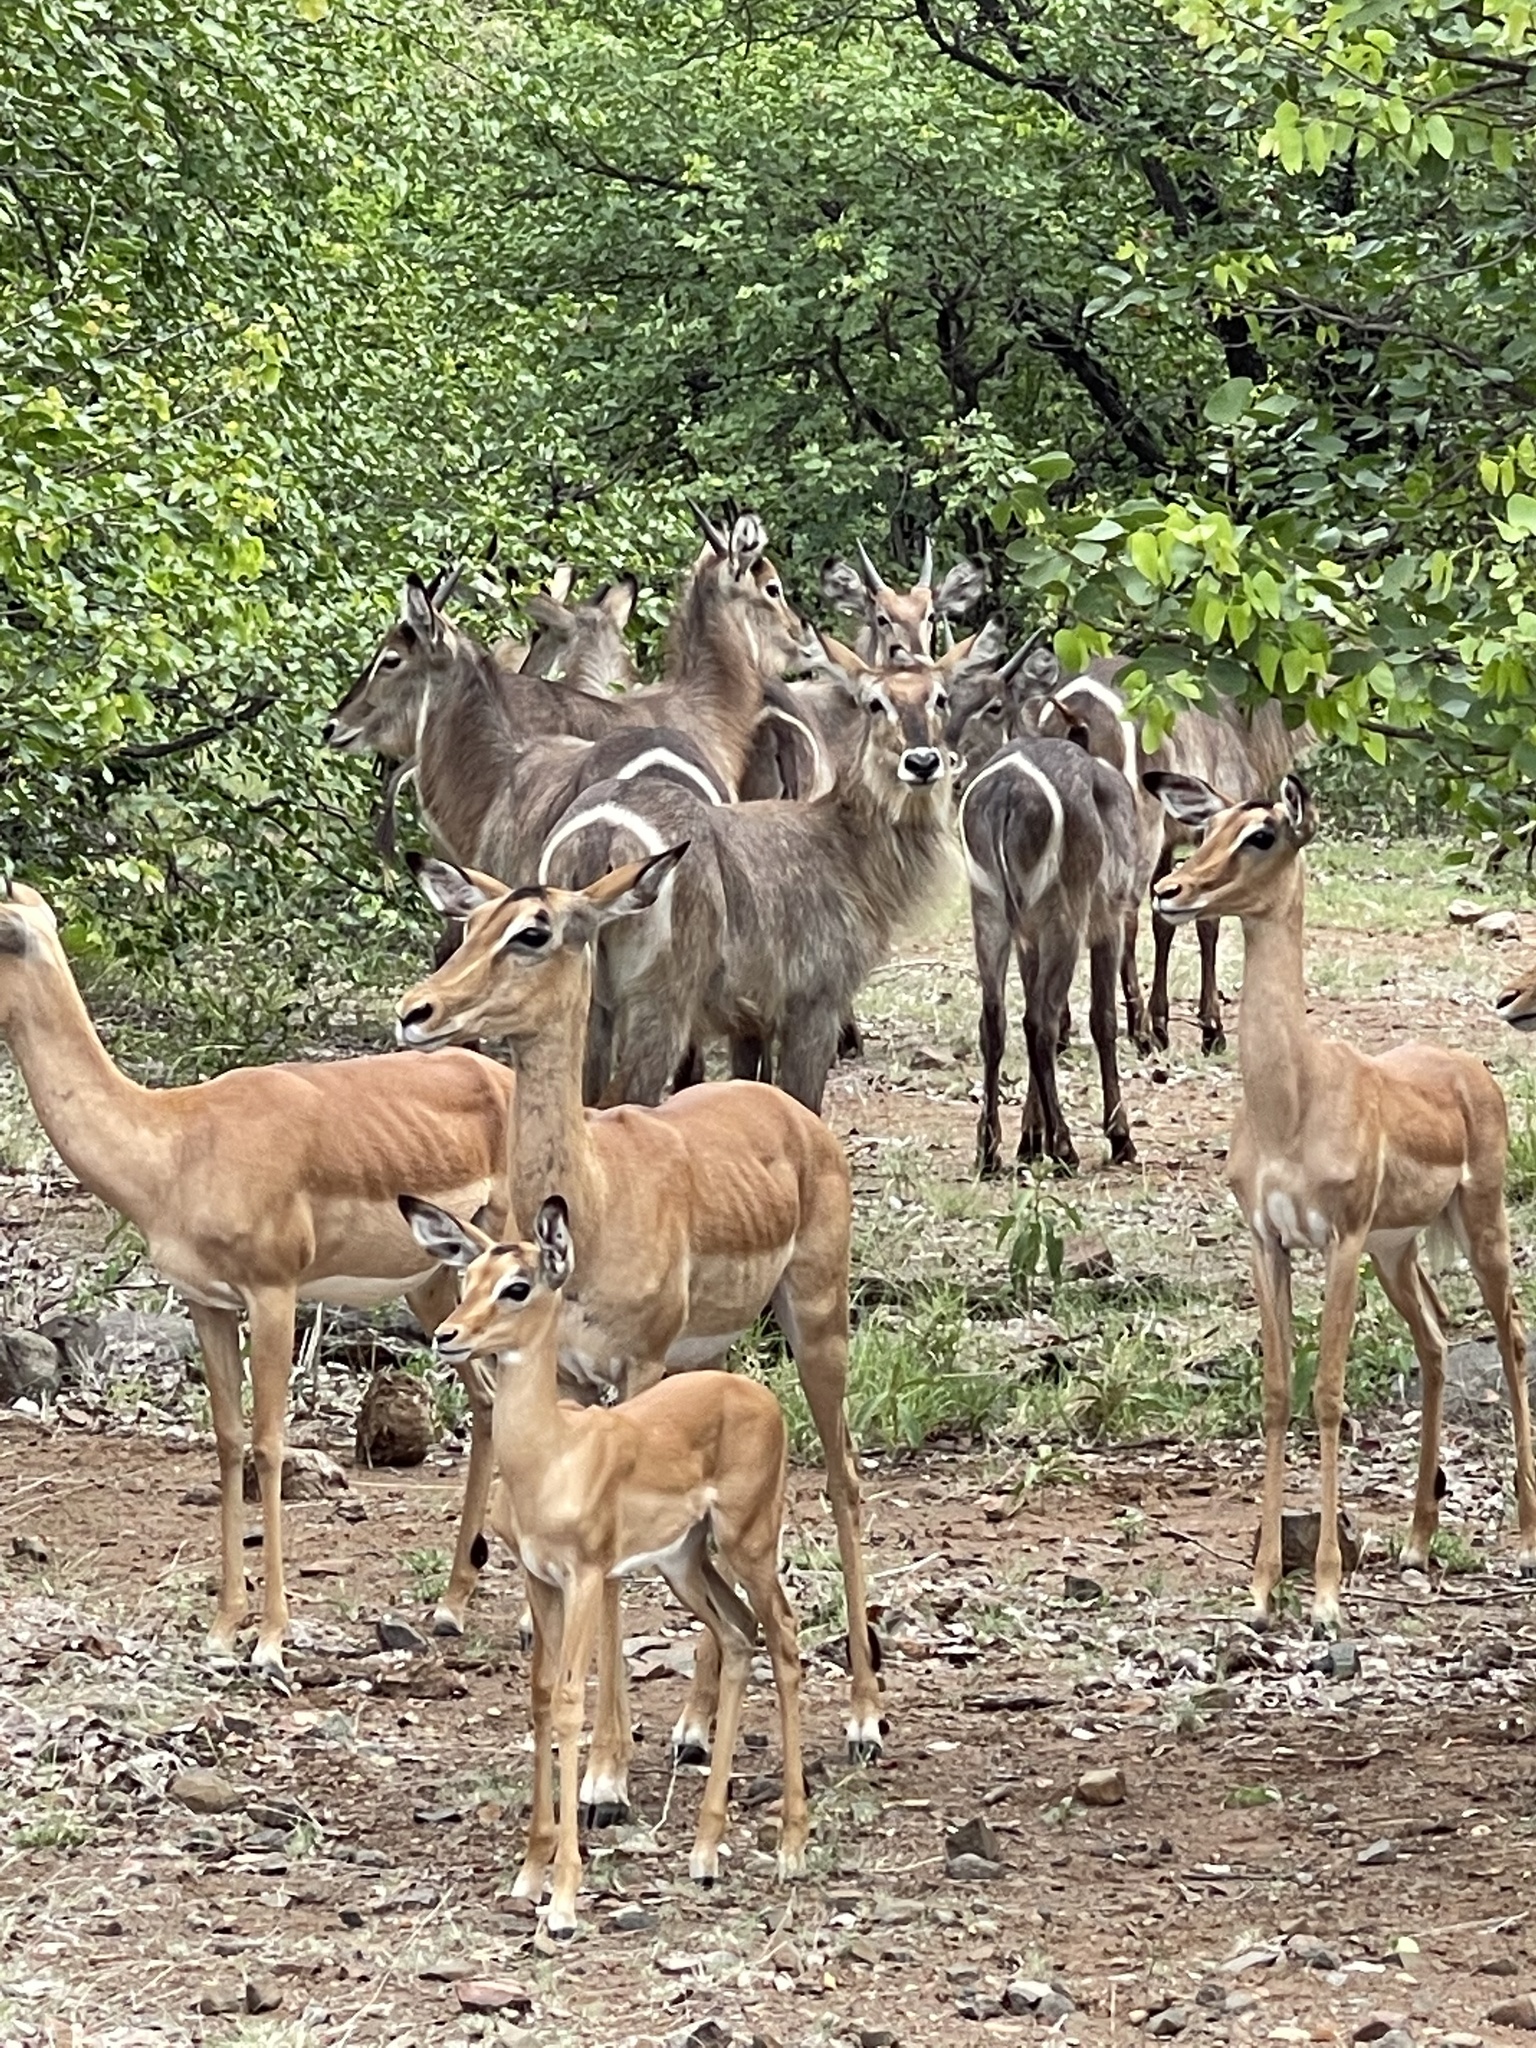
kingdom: Animalia
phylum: Chordata
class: Mammalia
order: Artiodactyla
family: Bovidae
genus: Kobus
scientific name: Kobus ellipsiprymnus
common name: Waterbuck
